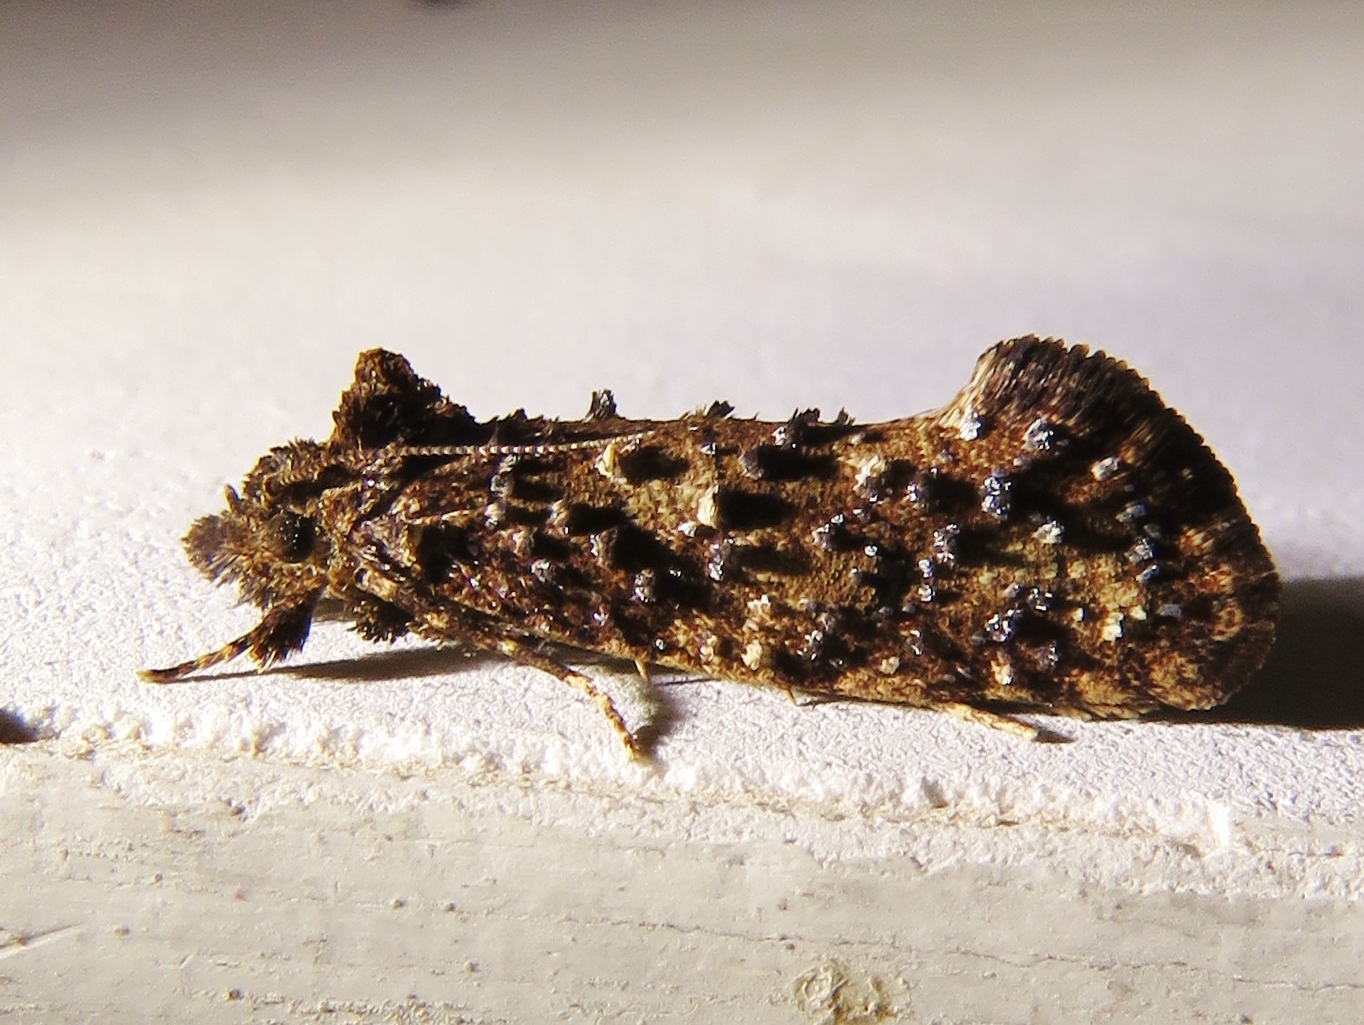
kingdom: Animalia
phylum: Arthropoda
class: Insecta
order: Lepidoptera
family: Tineidae
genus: Acrolophus
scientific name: Acrolophus cressoni
